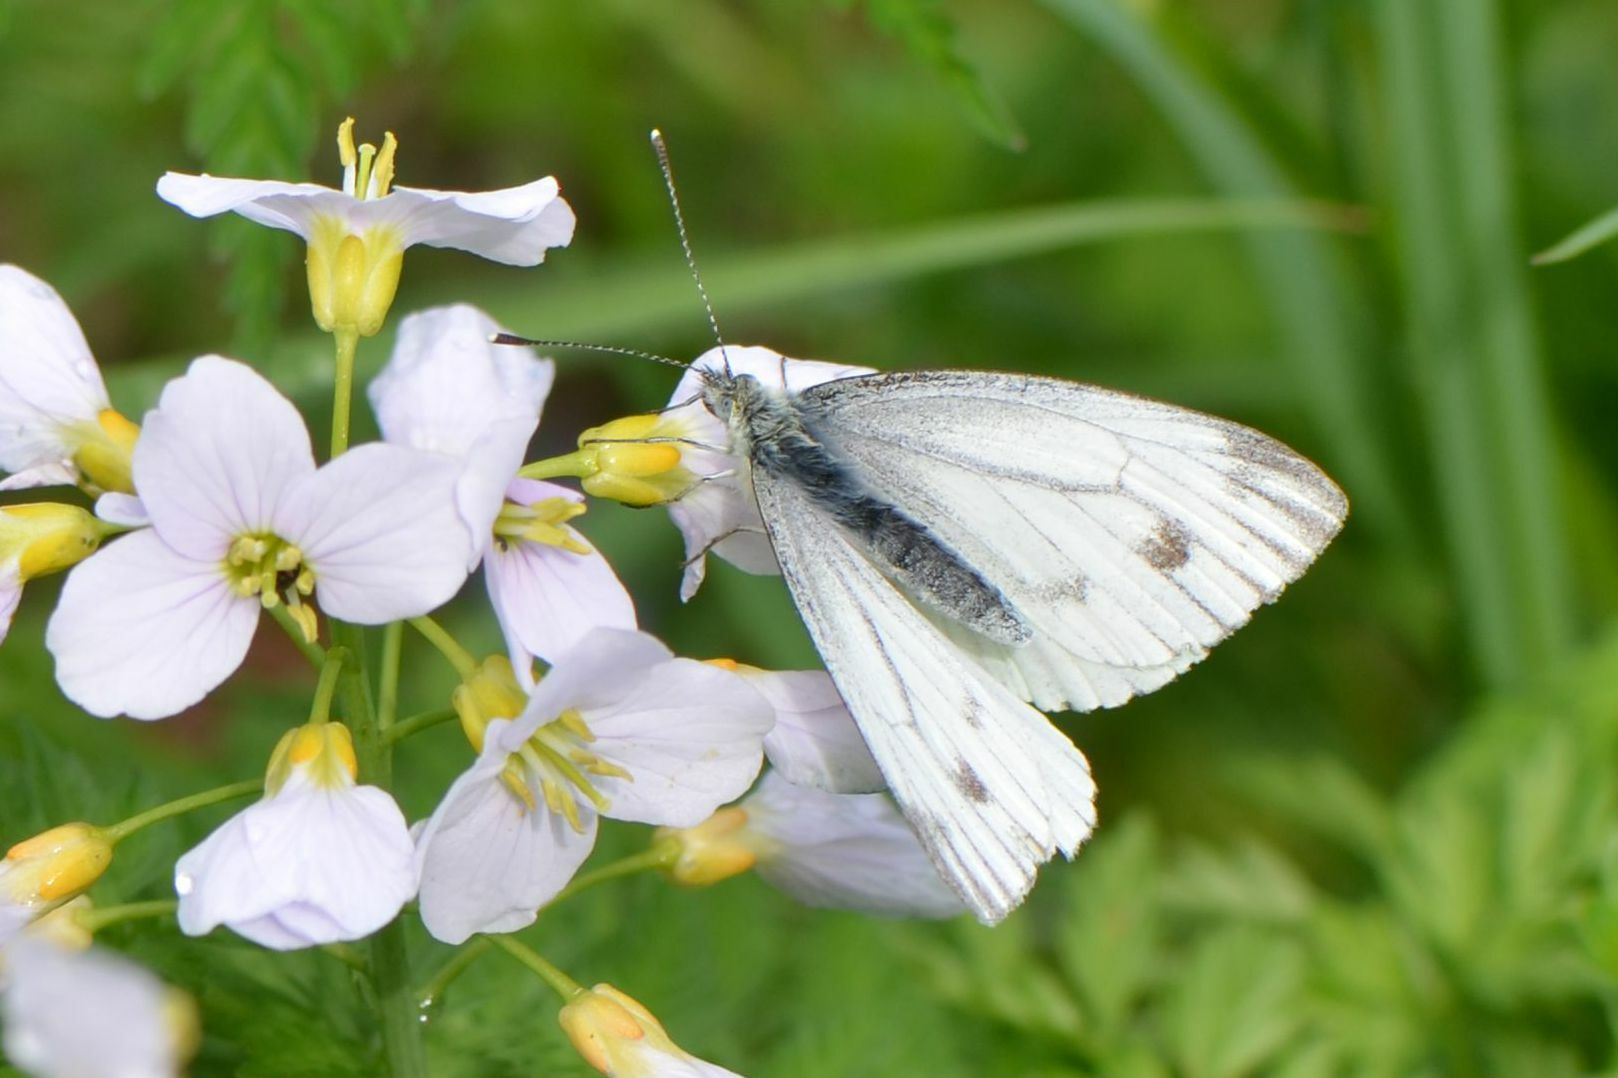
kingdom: Animalia
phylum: Arthropoda
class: Insecta
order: Lepidoptera
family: Pieridae
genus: Pieris
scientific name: Pieris napi
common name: Green-veined white
